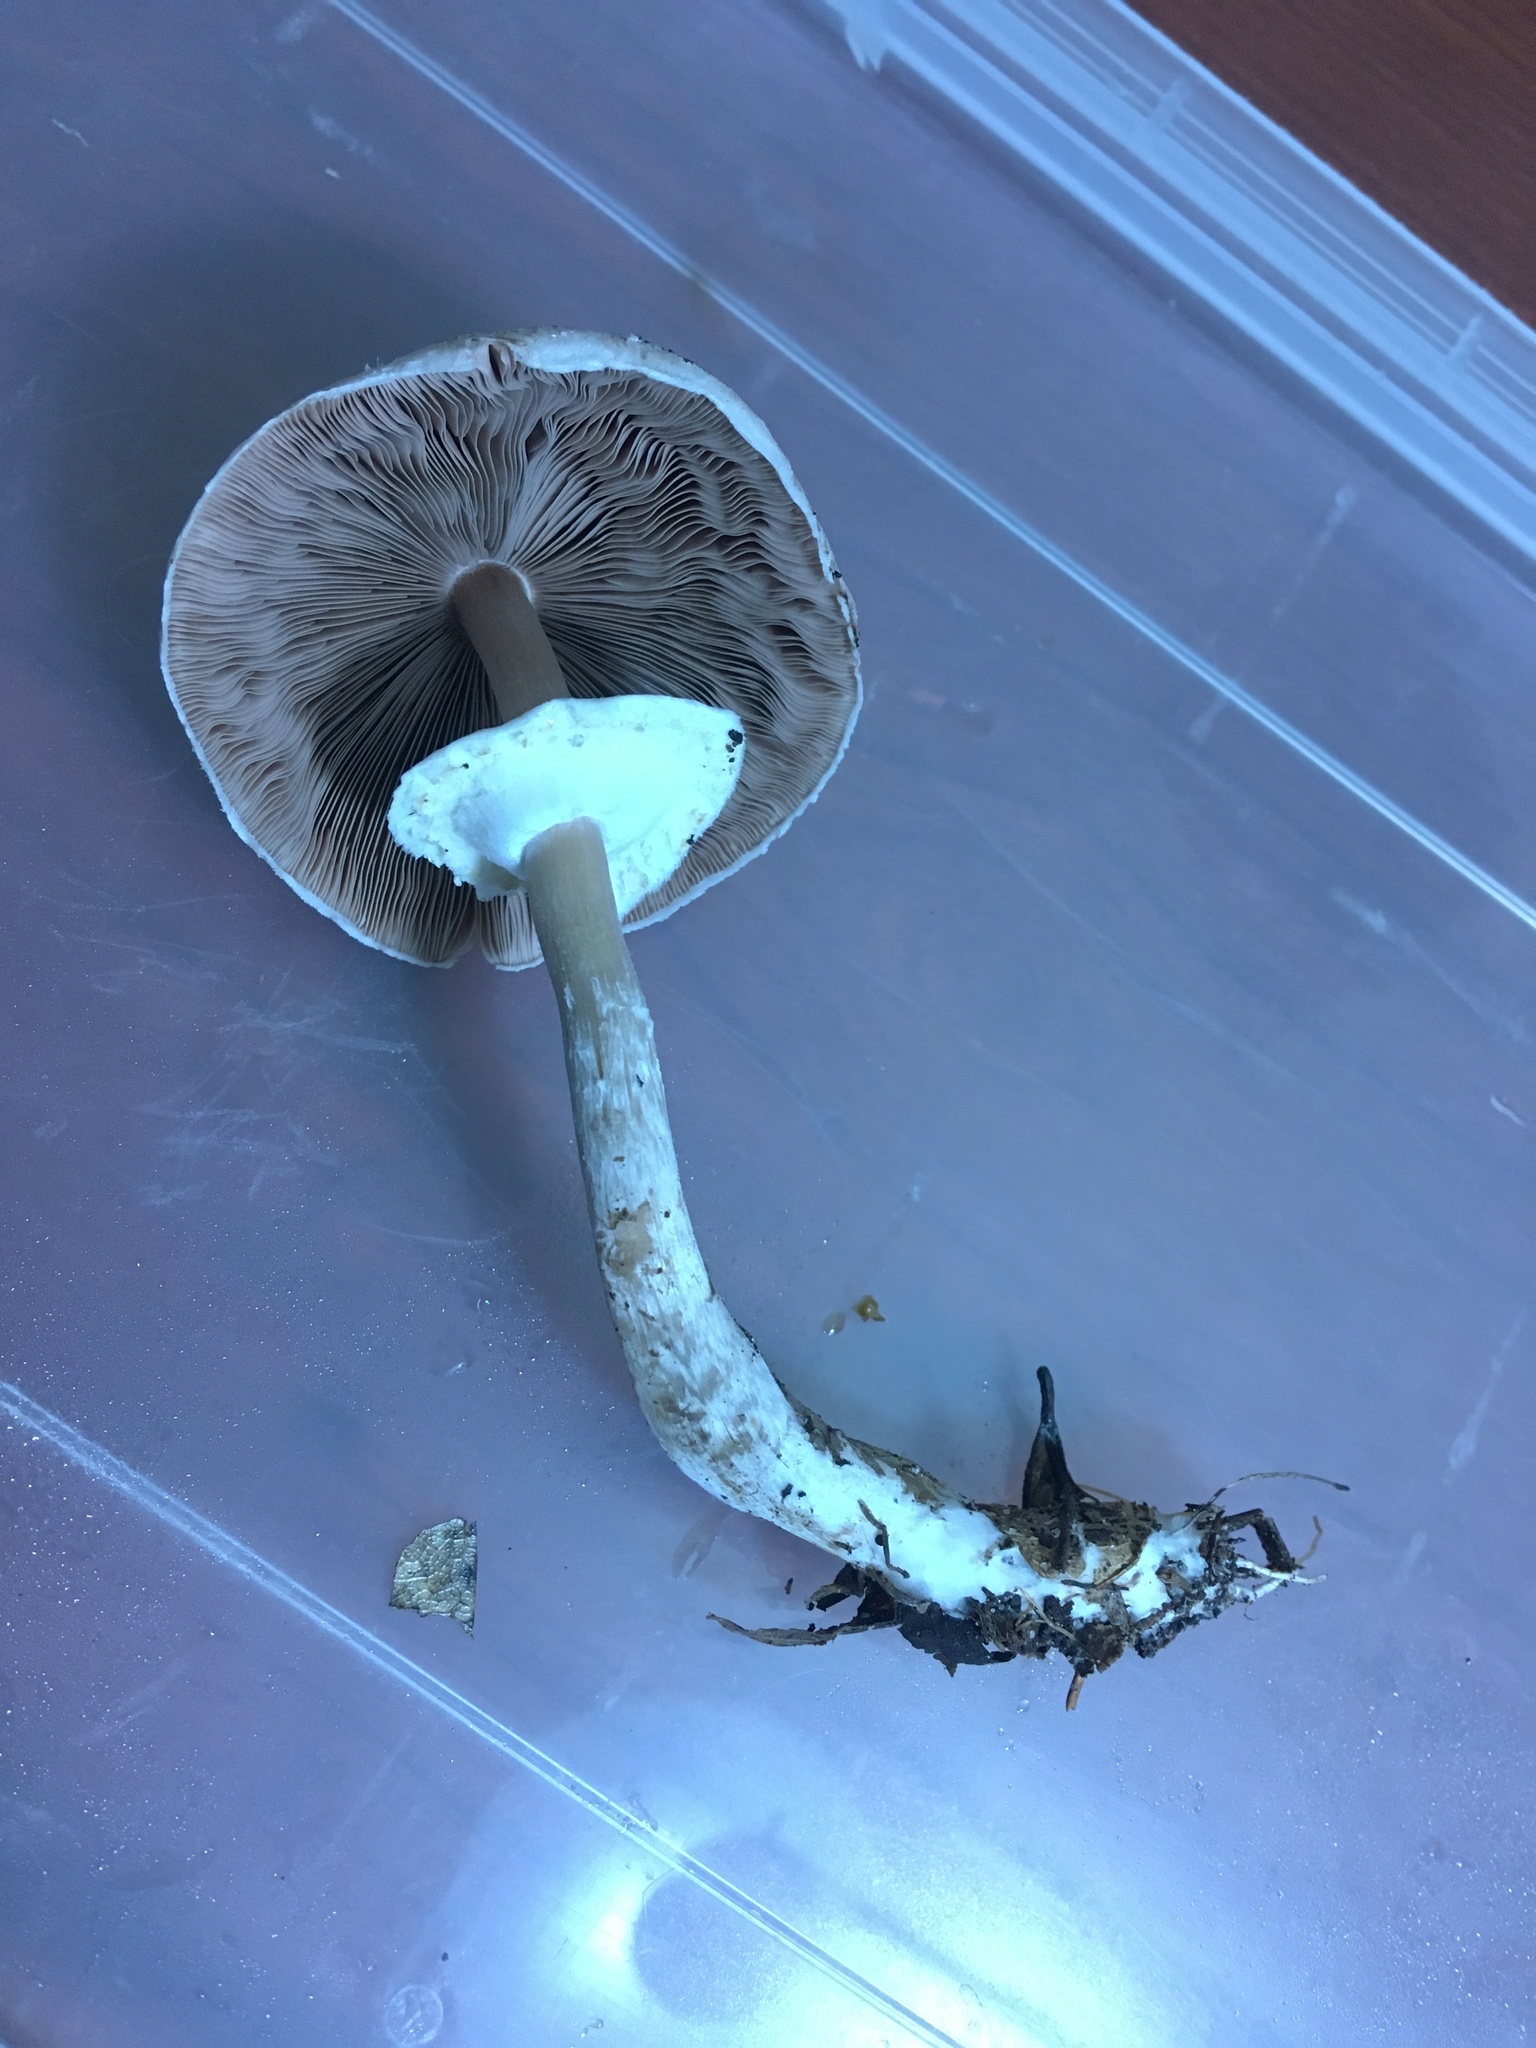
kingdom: Fungi
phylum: Basidiomycota
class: Agaricomycetes
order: Agaricales
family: Agaricaceae
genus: Agaricus
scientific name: Agaricus vinosobrunneofumidus
